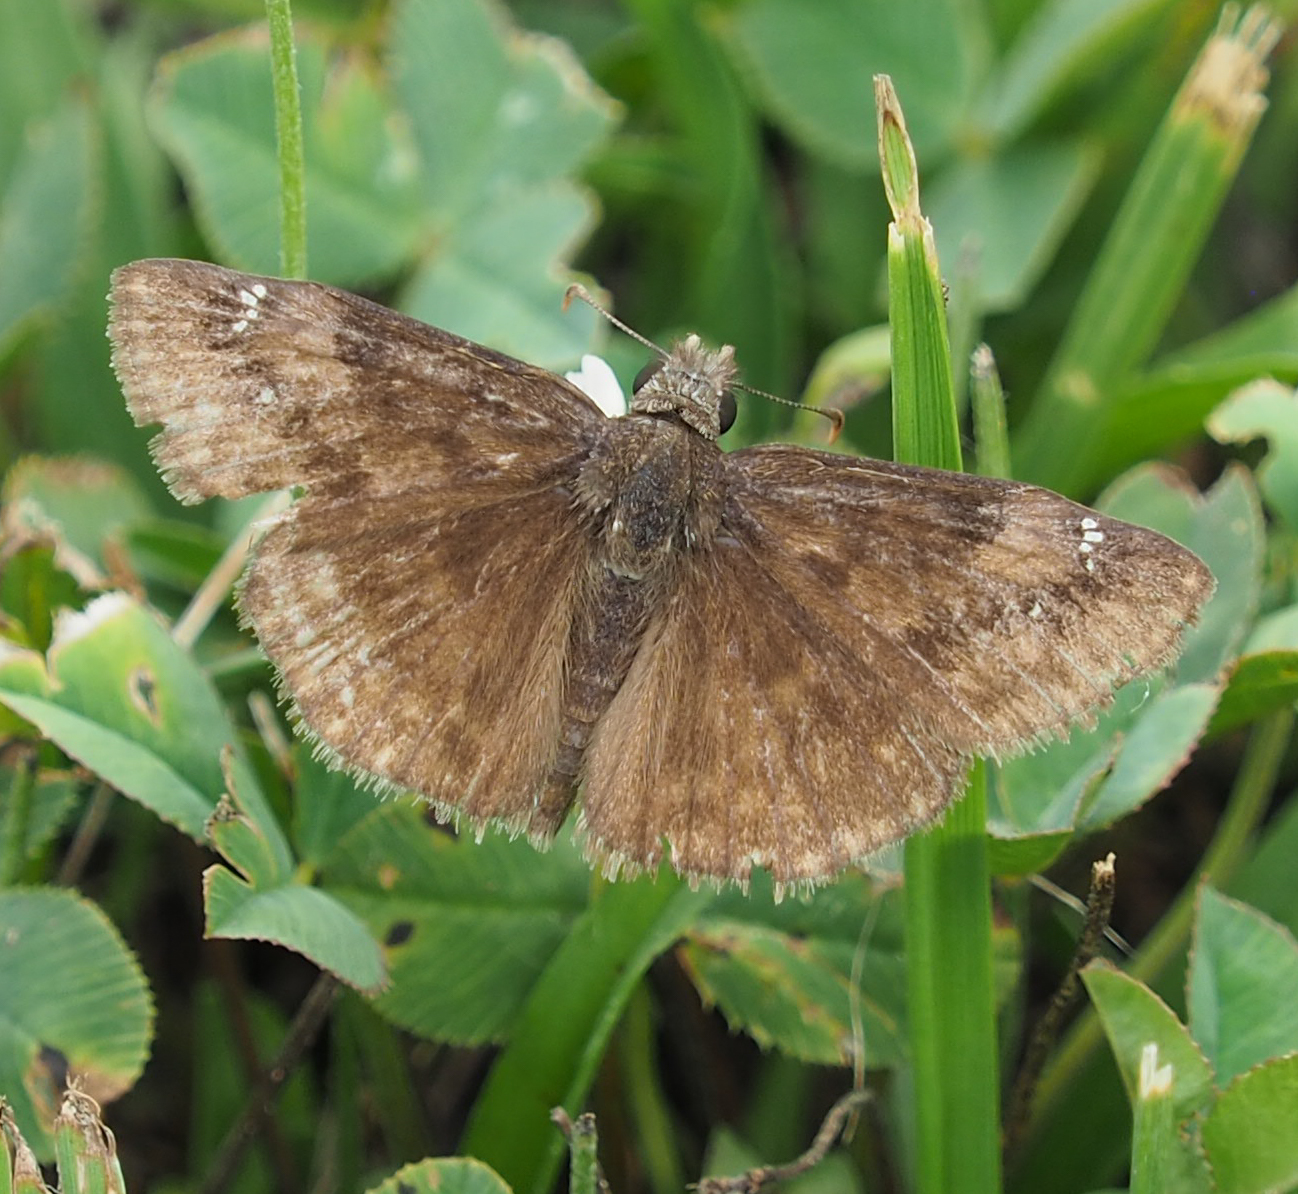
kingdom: Animalia
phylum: Arthropoda
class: Insecta
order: Lepidoptera
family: Hesperiidae
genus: Erynnis
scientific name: Erynnis baptisiae
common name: Wild indigo duskywing
